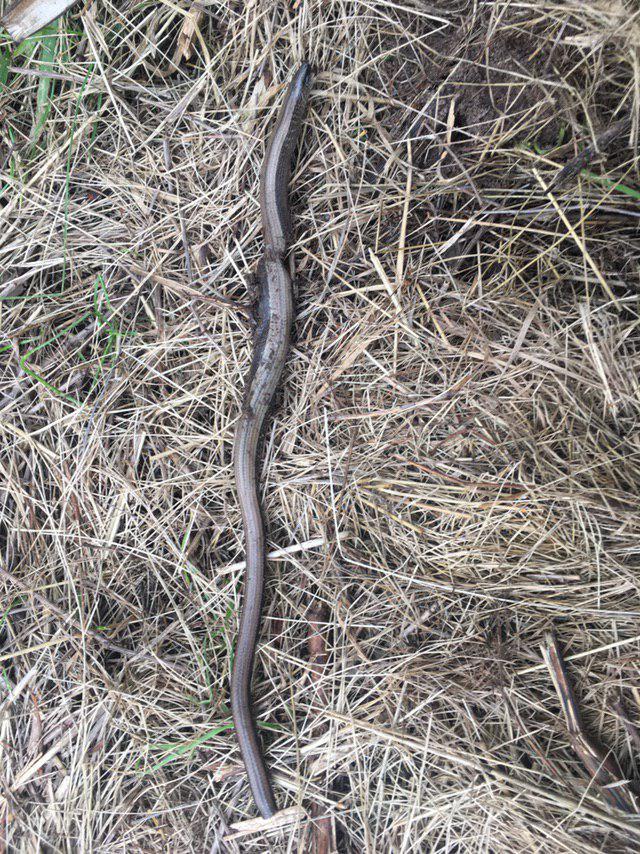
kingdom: Animalia
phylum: Chordata
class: Squamata
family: Anguidae
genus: Anguis
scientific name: Anguis fragilis
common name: Slow worm
